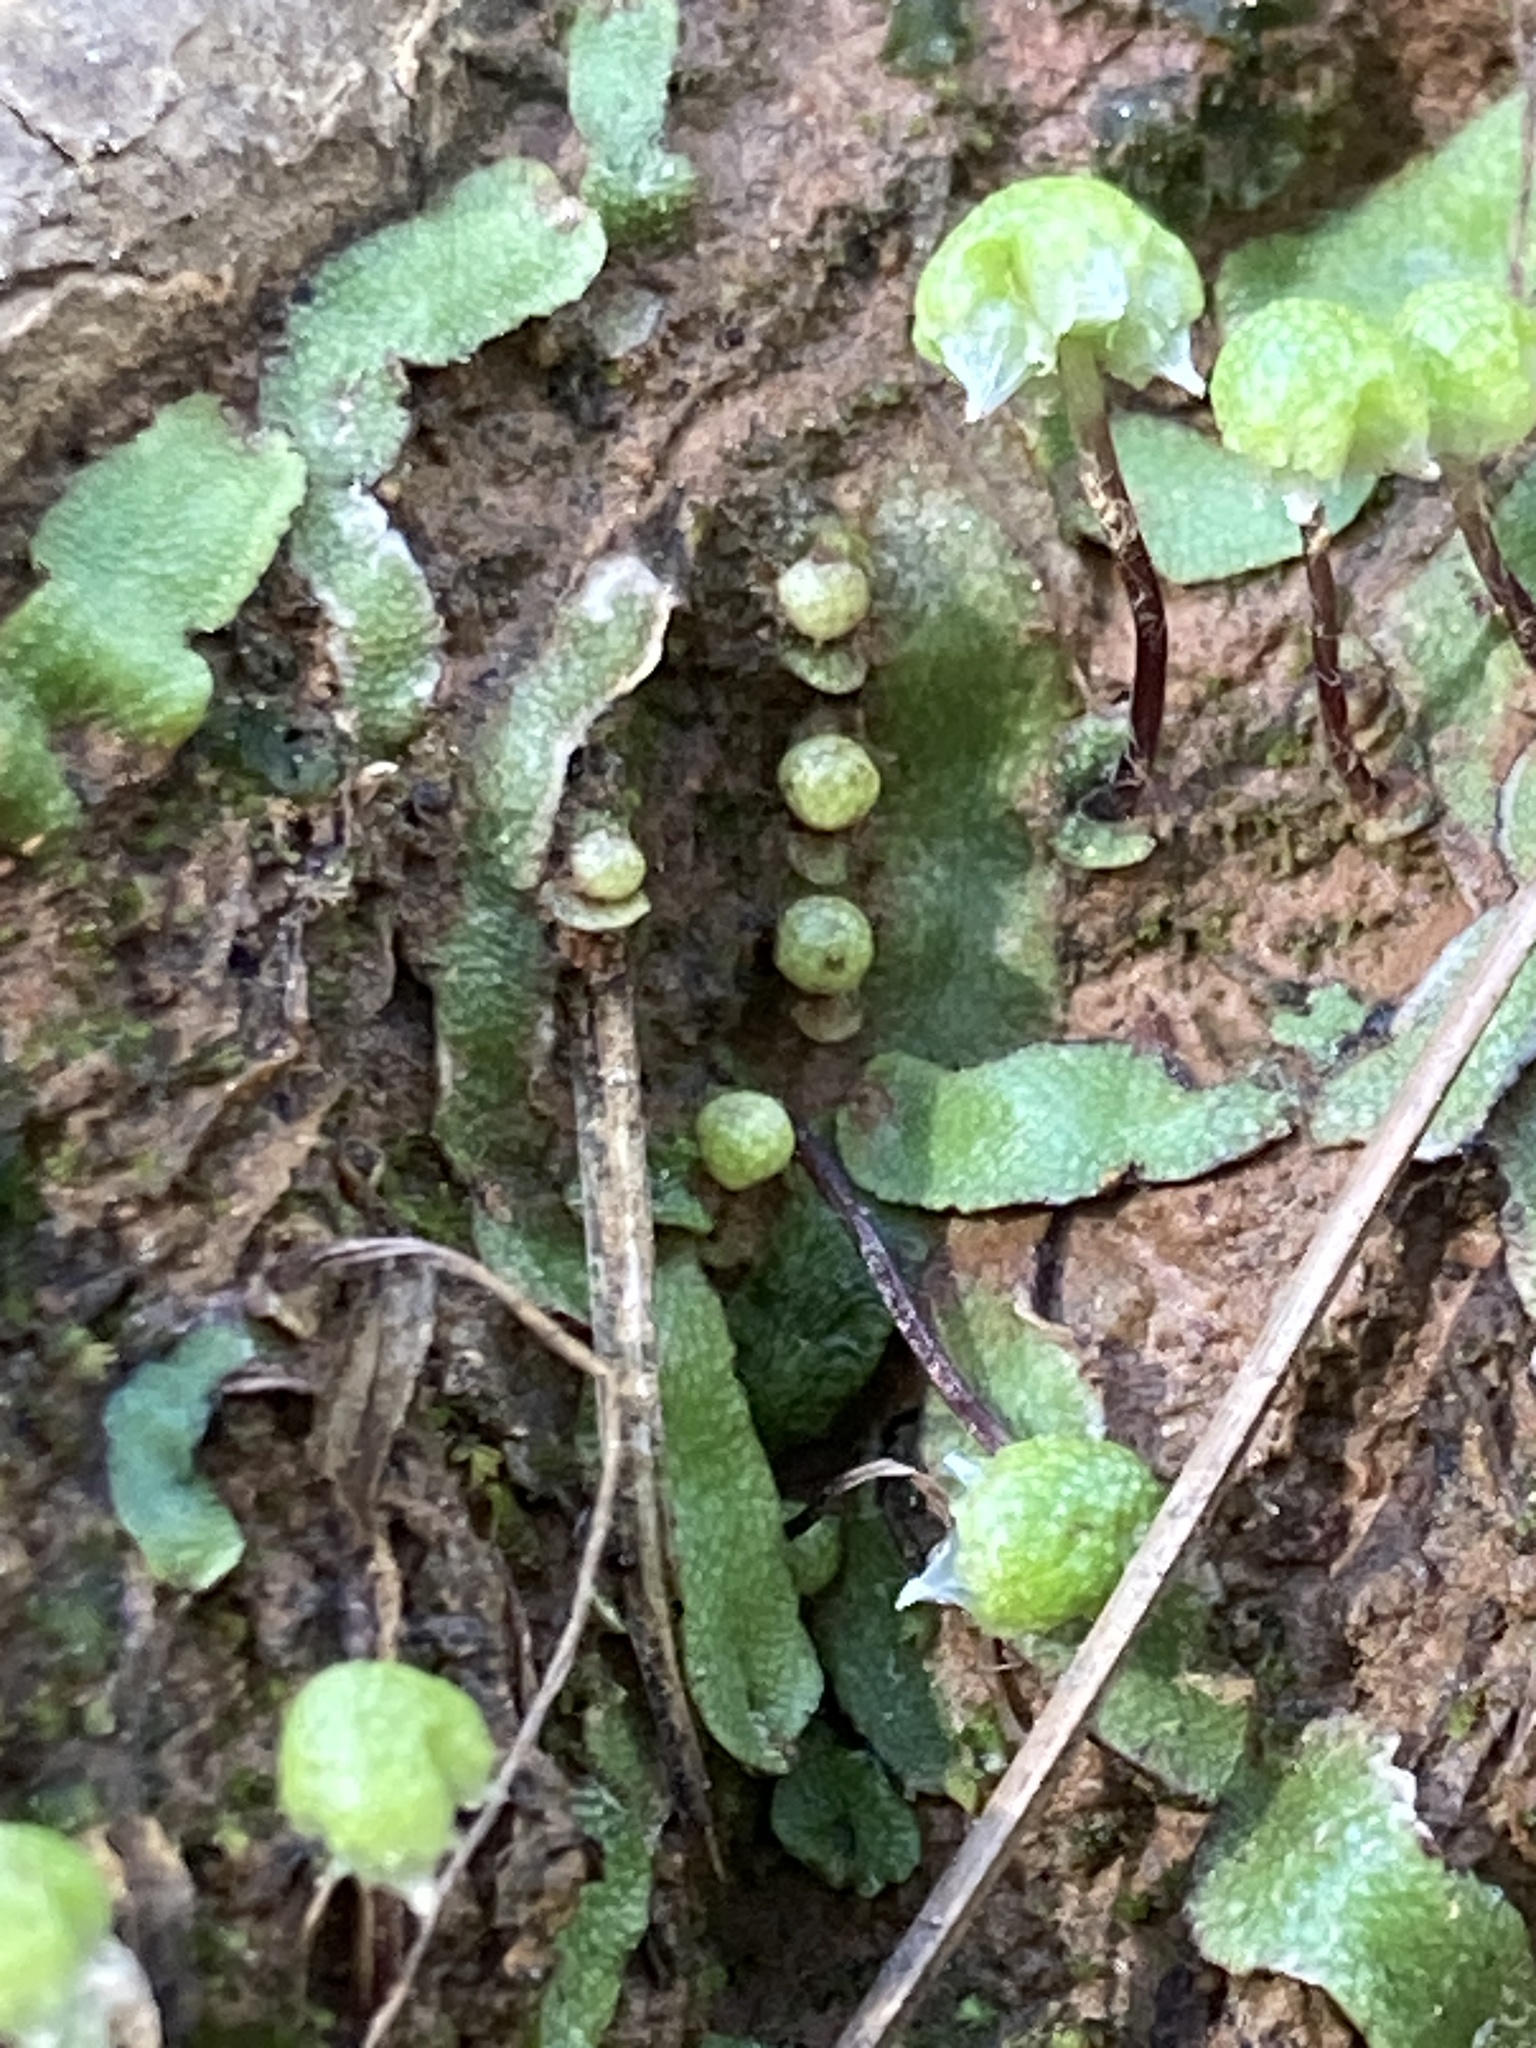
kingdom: Plantae
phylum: Marchantiophyta
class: Marchantiopsida
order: Marchantiales
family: Aytoniaceae
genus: Asterella
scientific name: Asterella bolanderi
